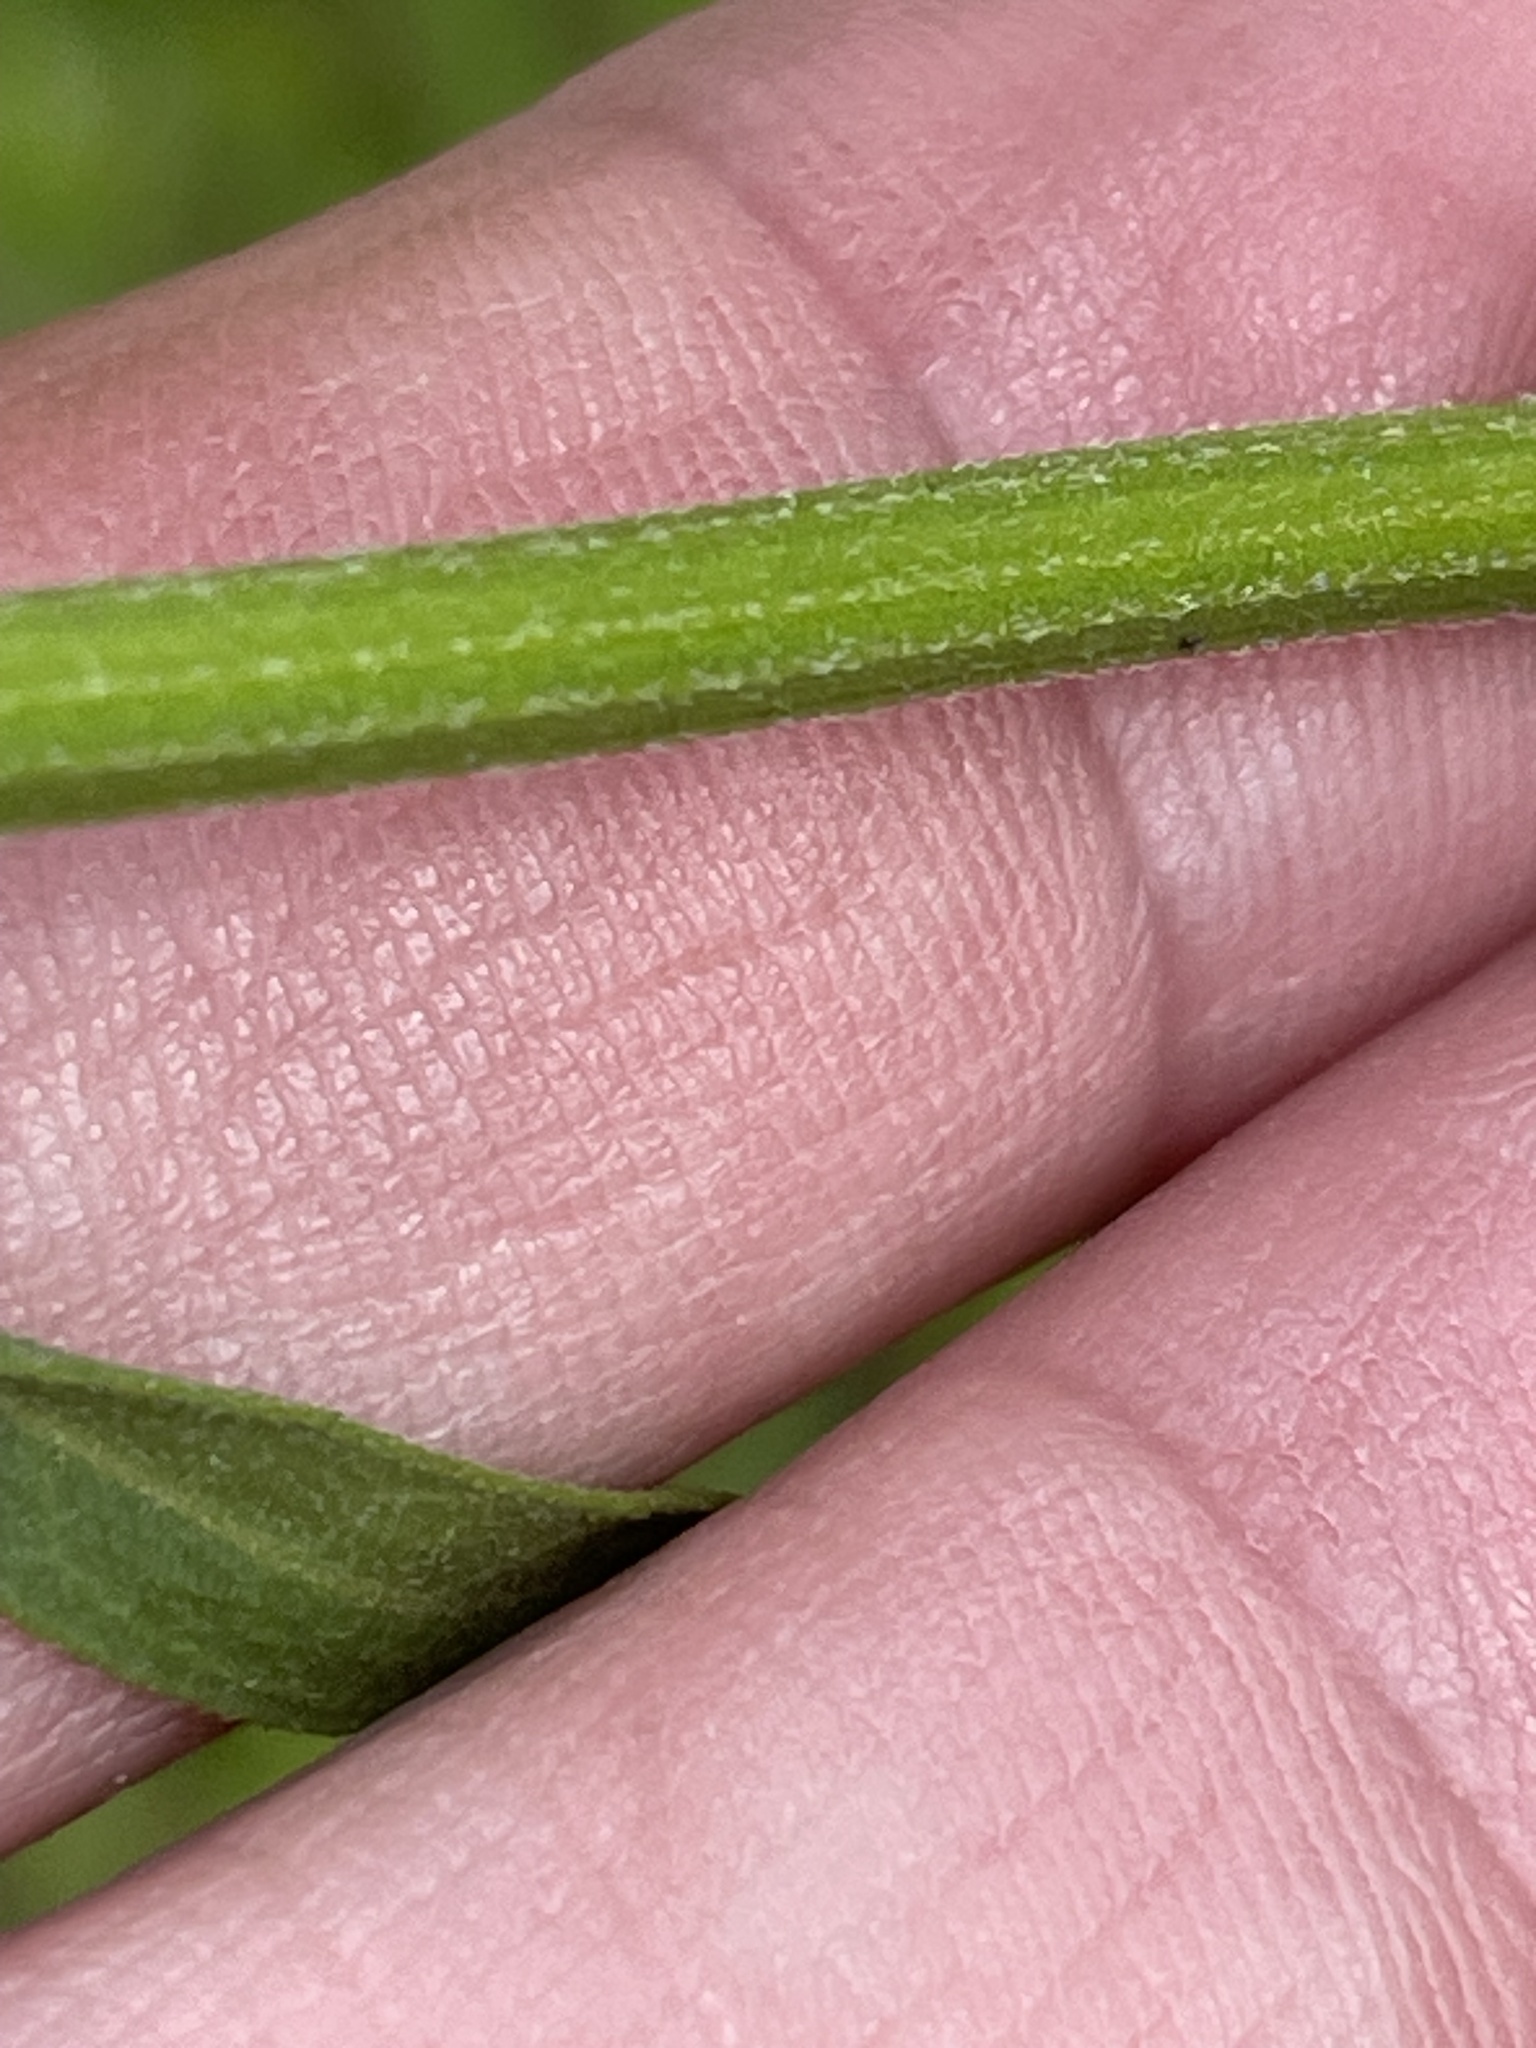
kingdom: Plantae
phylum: Tracheophyta
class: Magnoliopsida
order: Asterales
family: Asteraceae
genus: Erigeron
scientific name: Erigeron strigosus
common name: Common eastern fleabane
